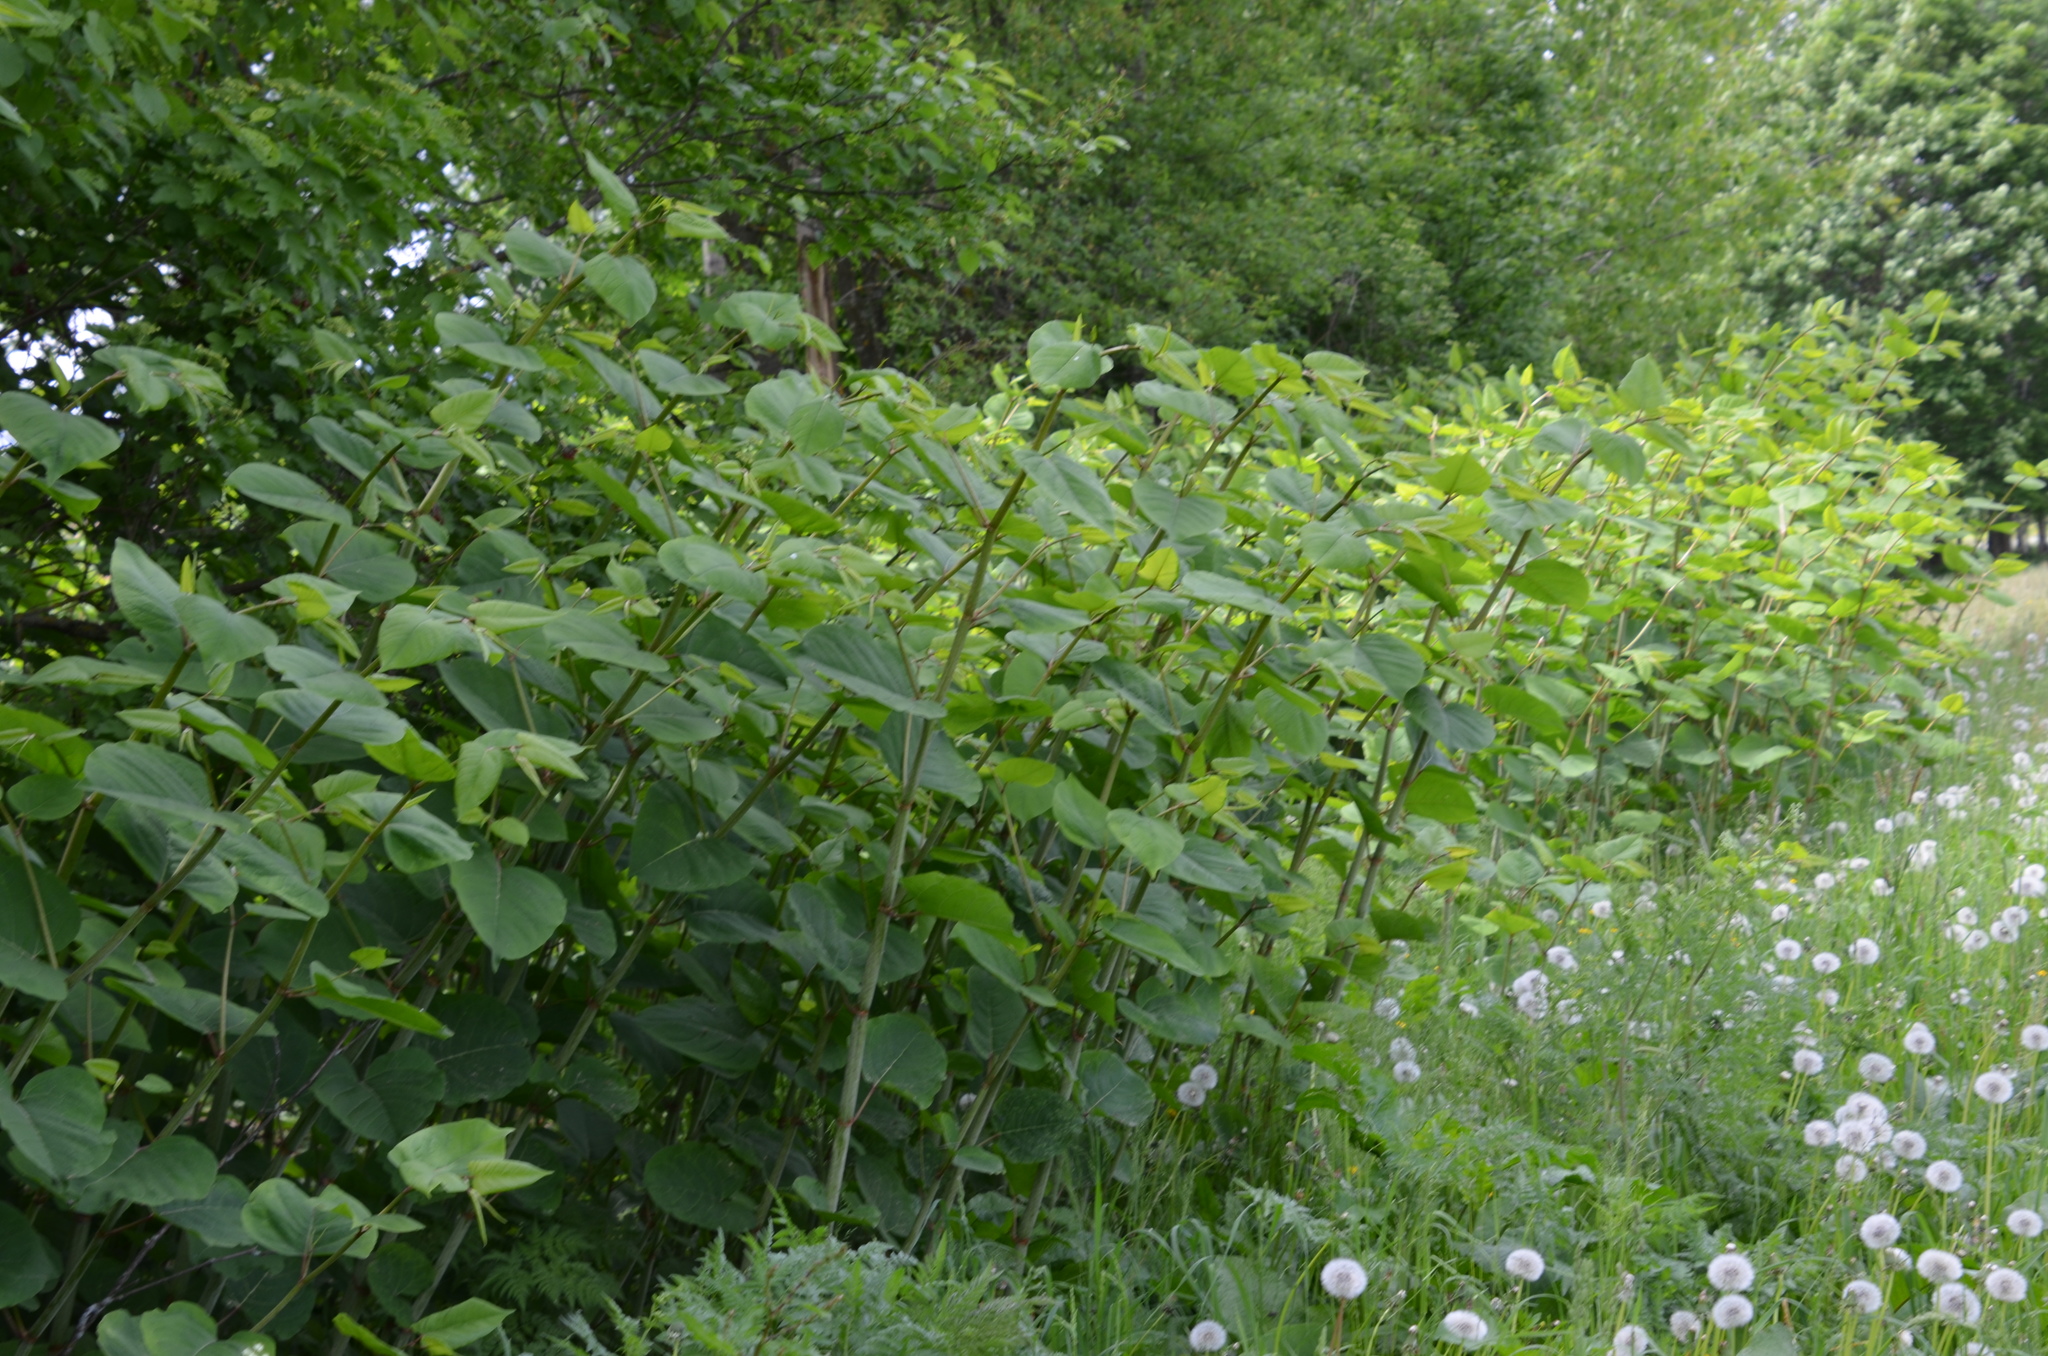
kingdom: Plantae
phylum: Tracheophyta
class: Magnoliopsida
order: Caryophyllales
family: Polygonaceae
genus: Reynoutria
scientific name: Reynoutria bohemica
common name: Bohemian knotweed
